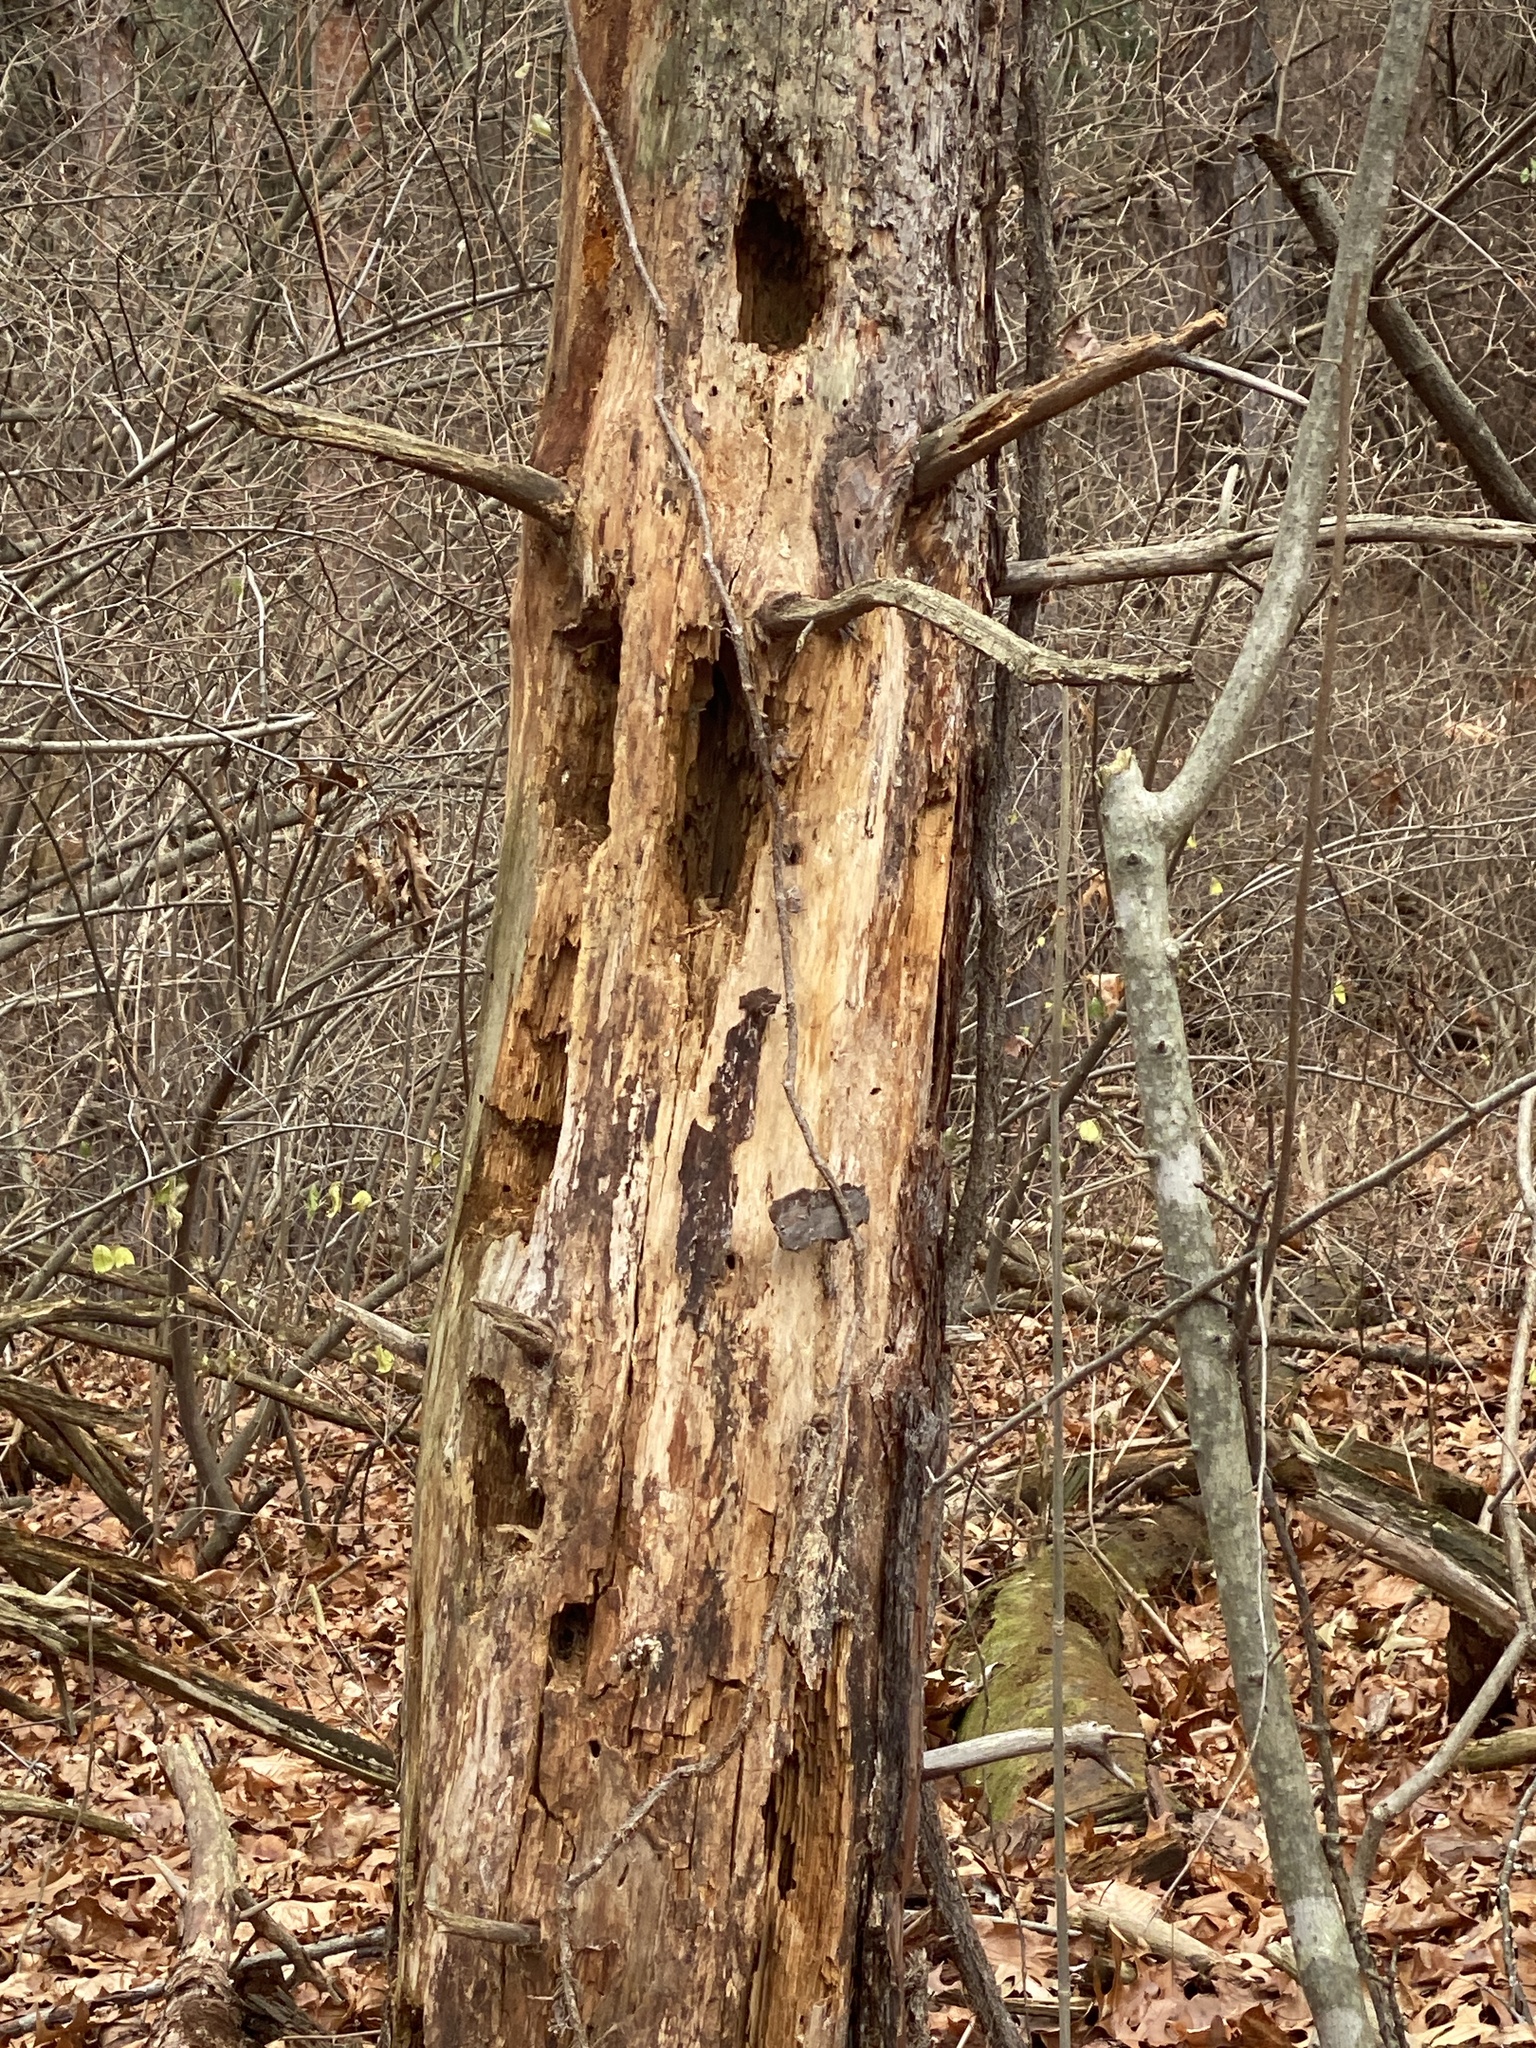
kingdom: Animalia
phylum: Chordata
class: Aves
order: Piciformes
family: Picidae
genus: Dryocopus
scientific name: Dryocopus pileatus
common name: Pileated woodpecker
